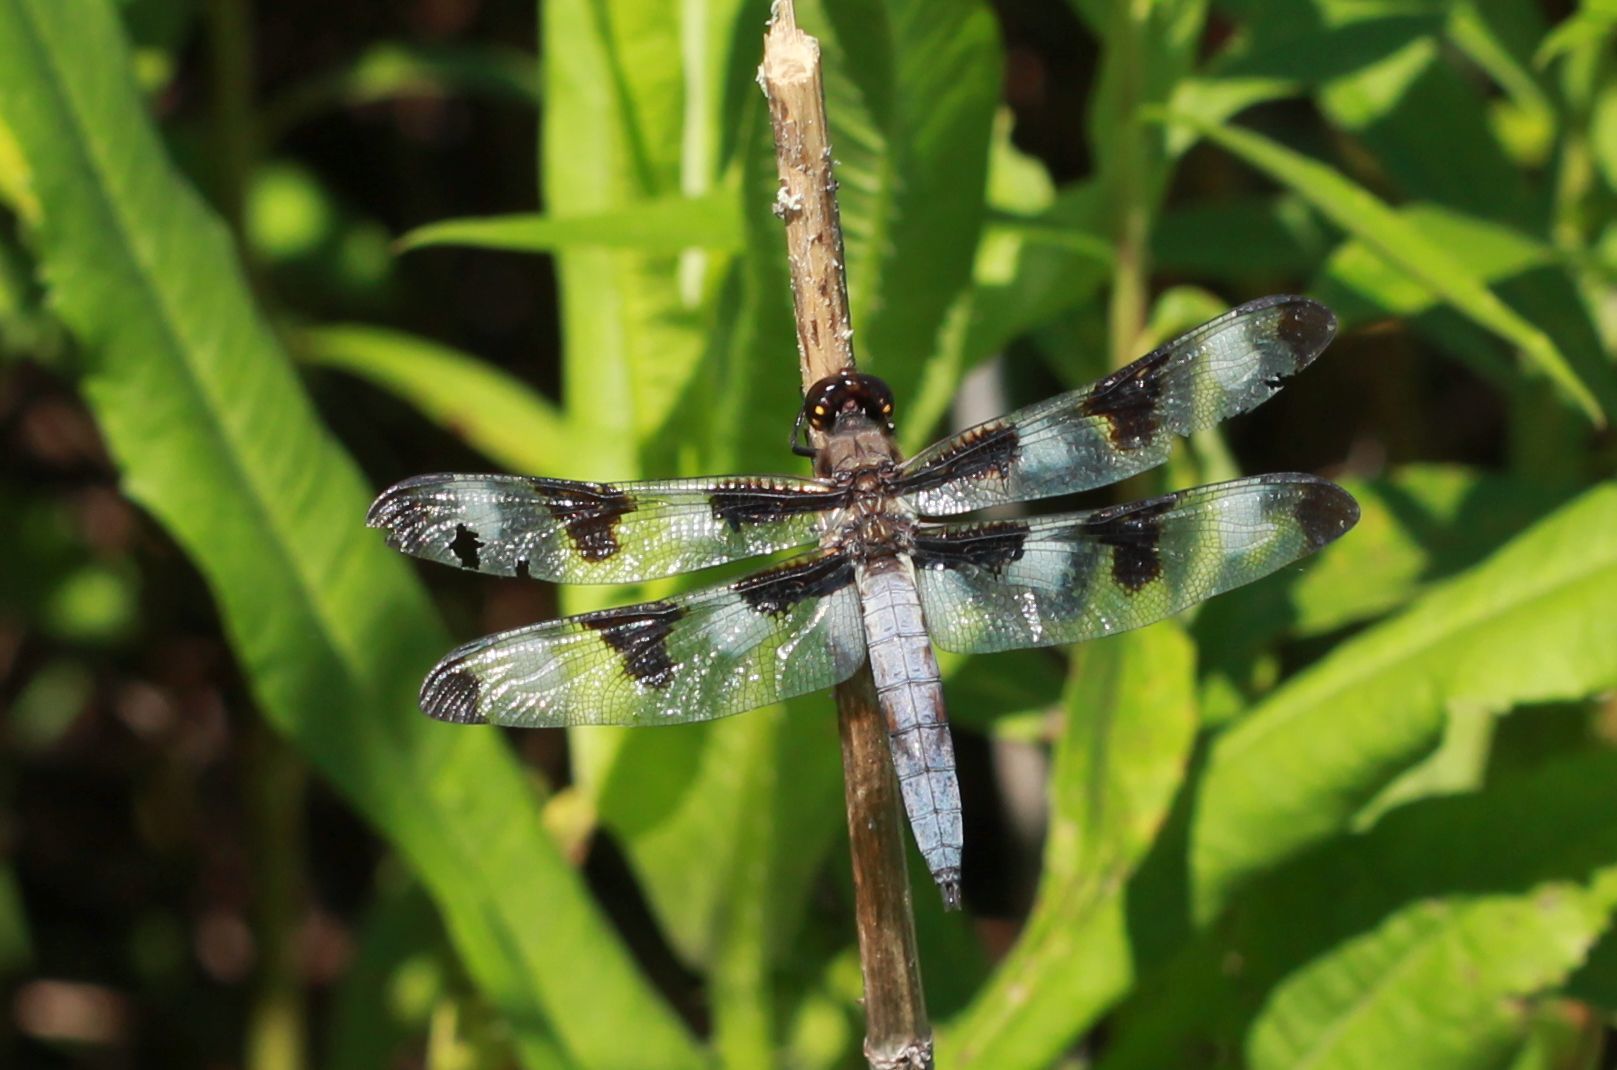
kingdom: Animalia
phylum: Arthropoda
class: Insecta
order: Odonata
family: Libellulidae
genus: Libellula
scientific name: Libellula pulchella
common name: Twelve-spotted skimmer
